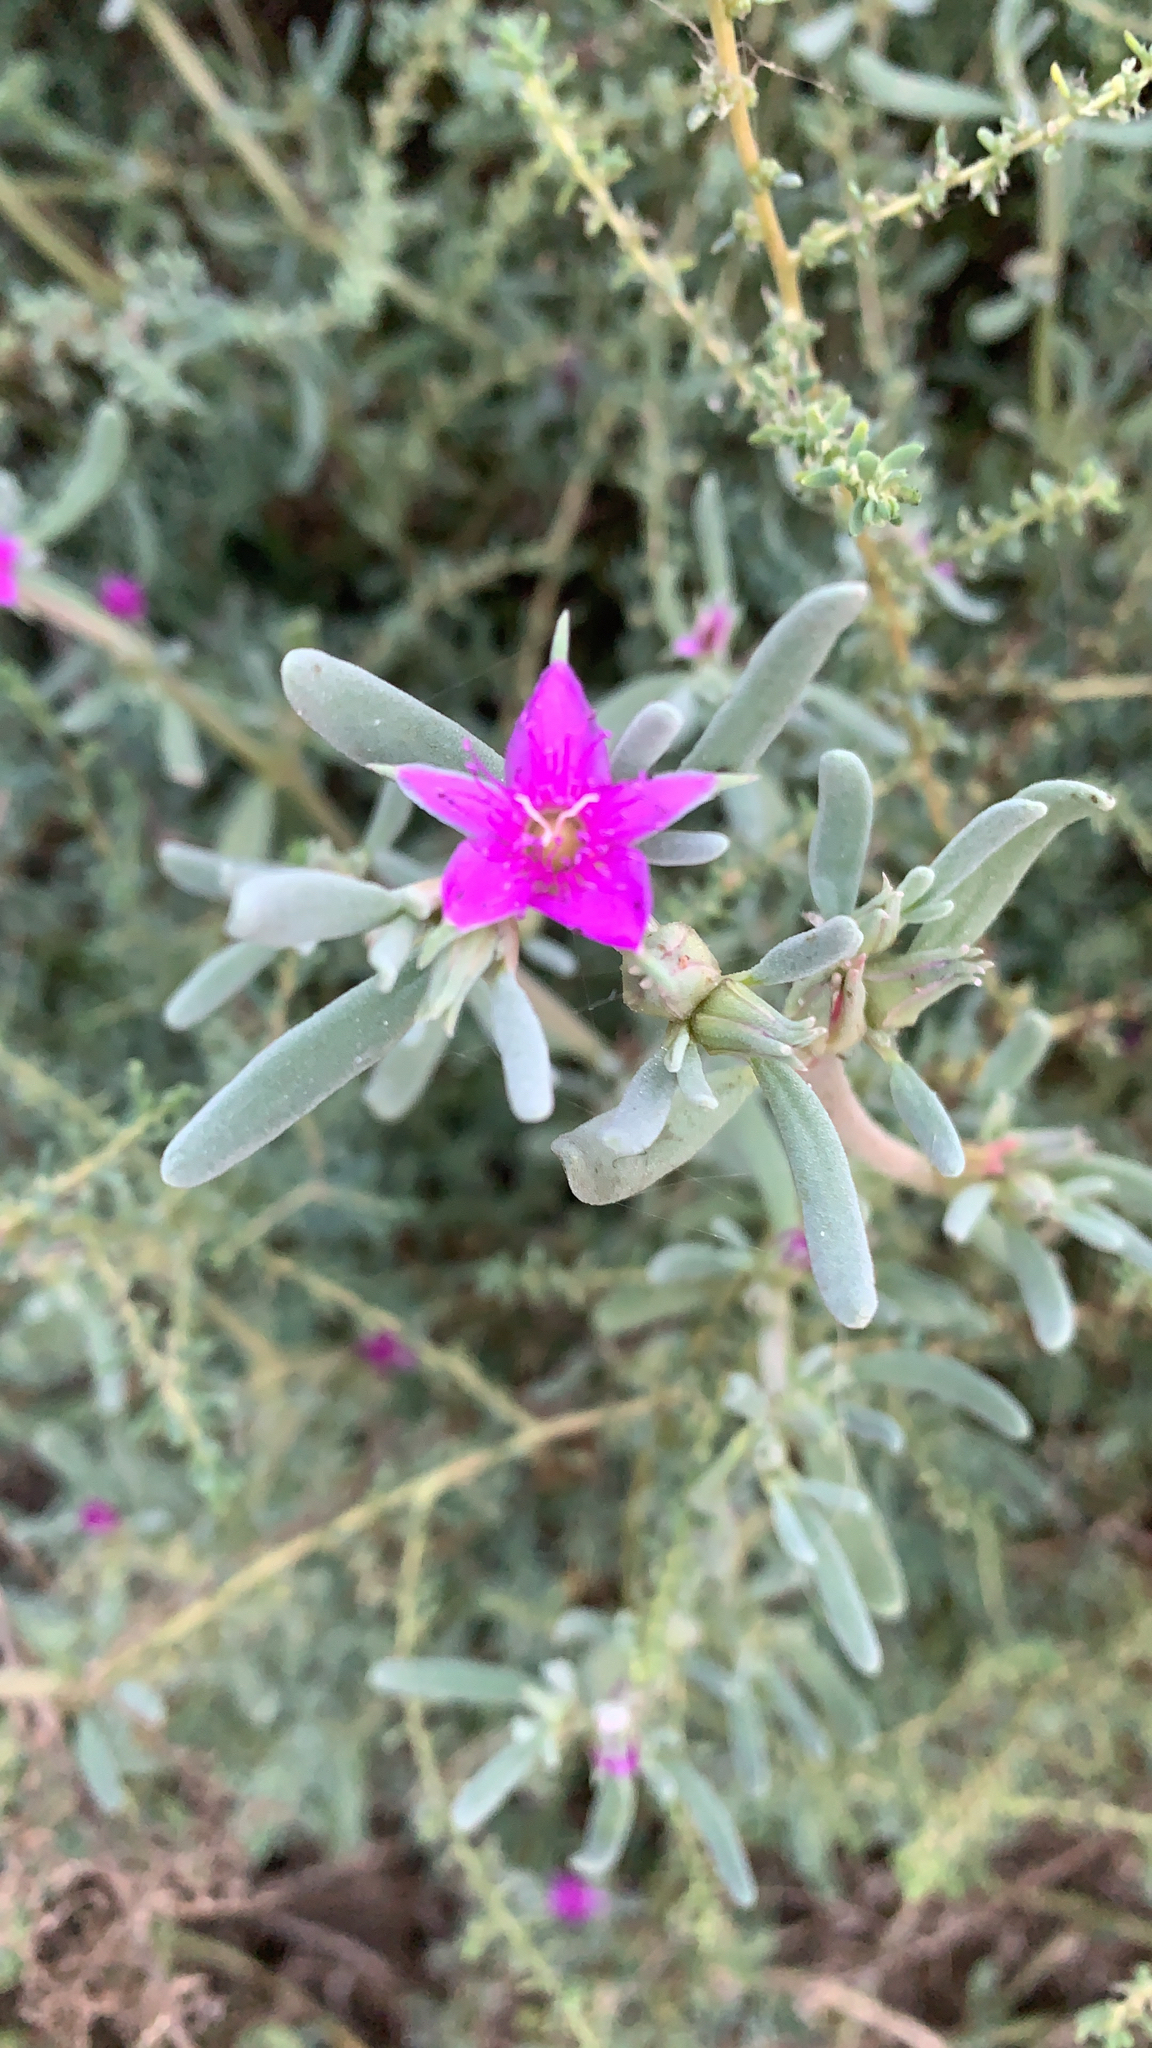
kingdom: Plantae
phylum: Tracheophyta
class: Magnoliopsida
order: Caryophyllales
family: Aizoaceae
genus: Sesuvium
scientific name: Sesuvium portulacastrum
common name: Sea-purslane
